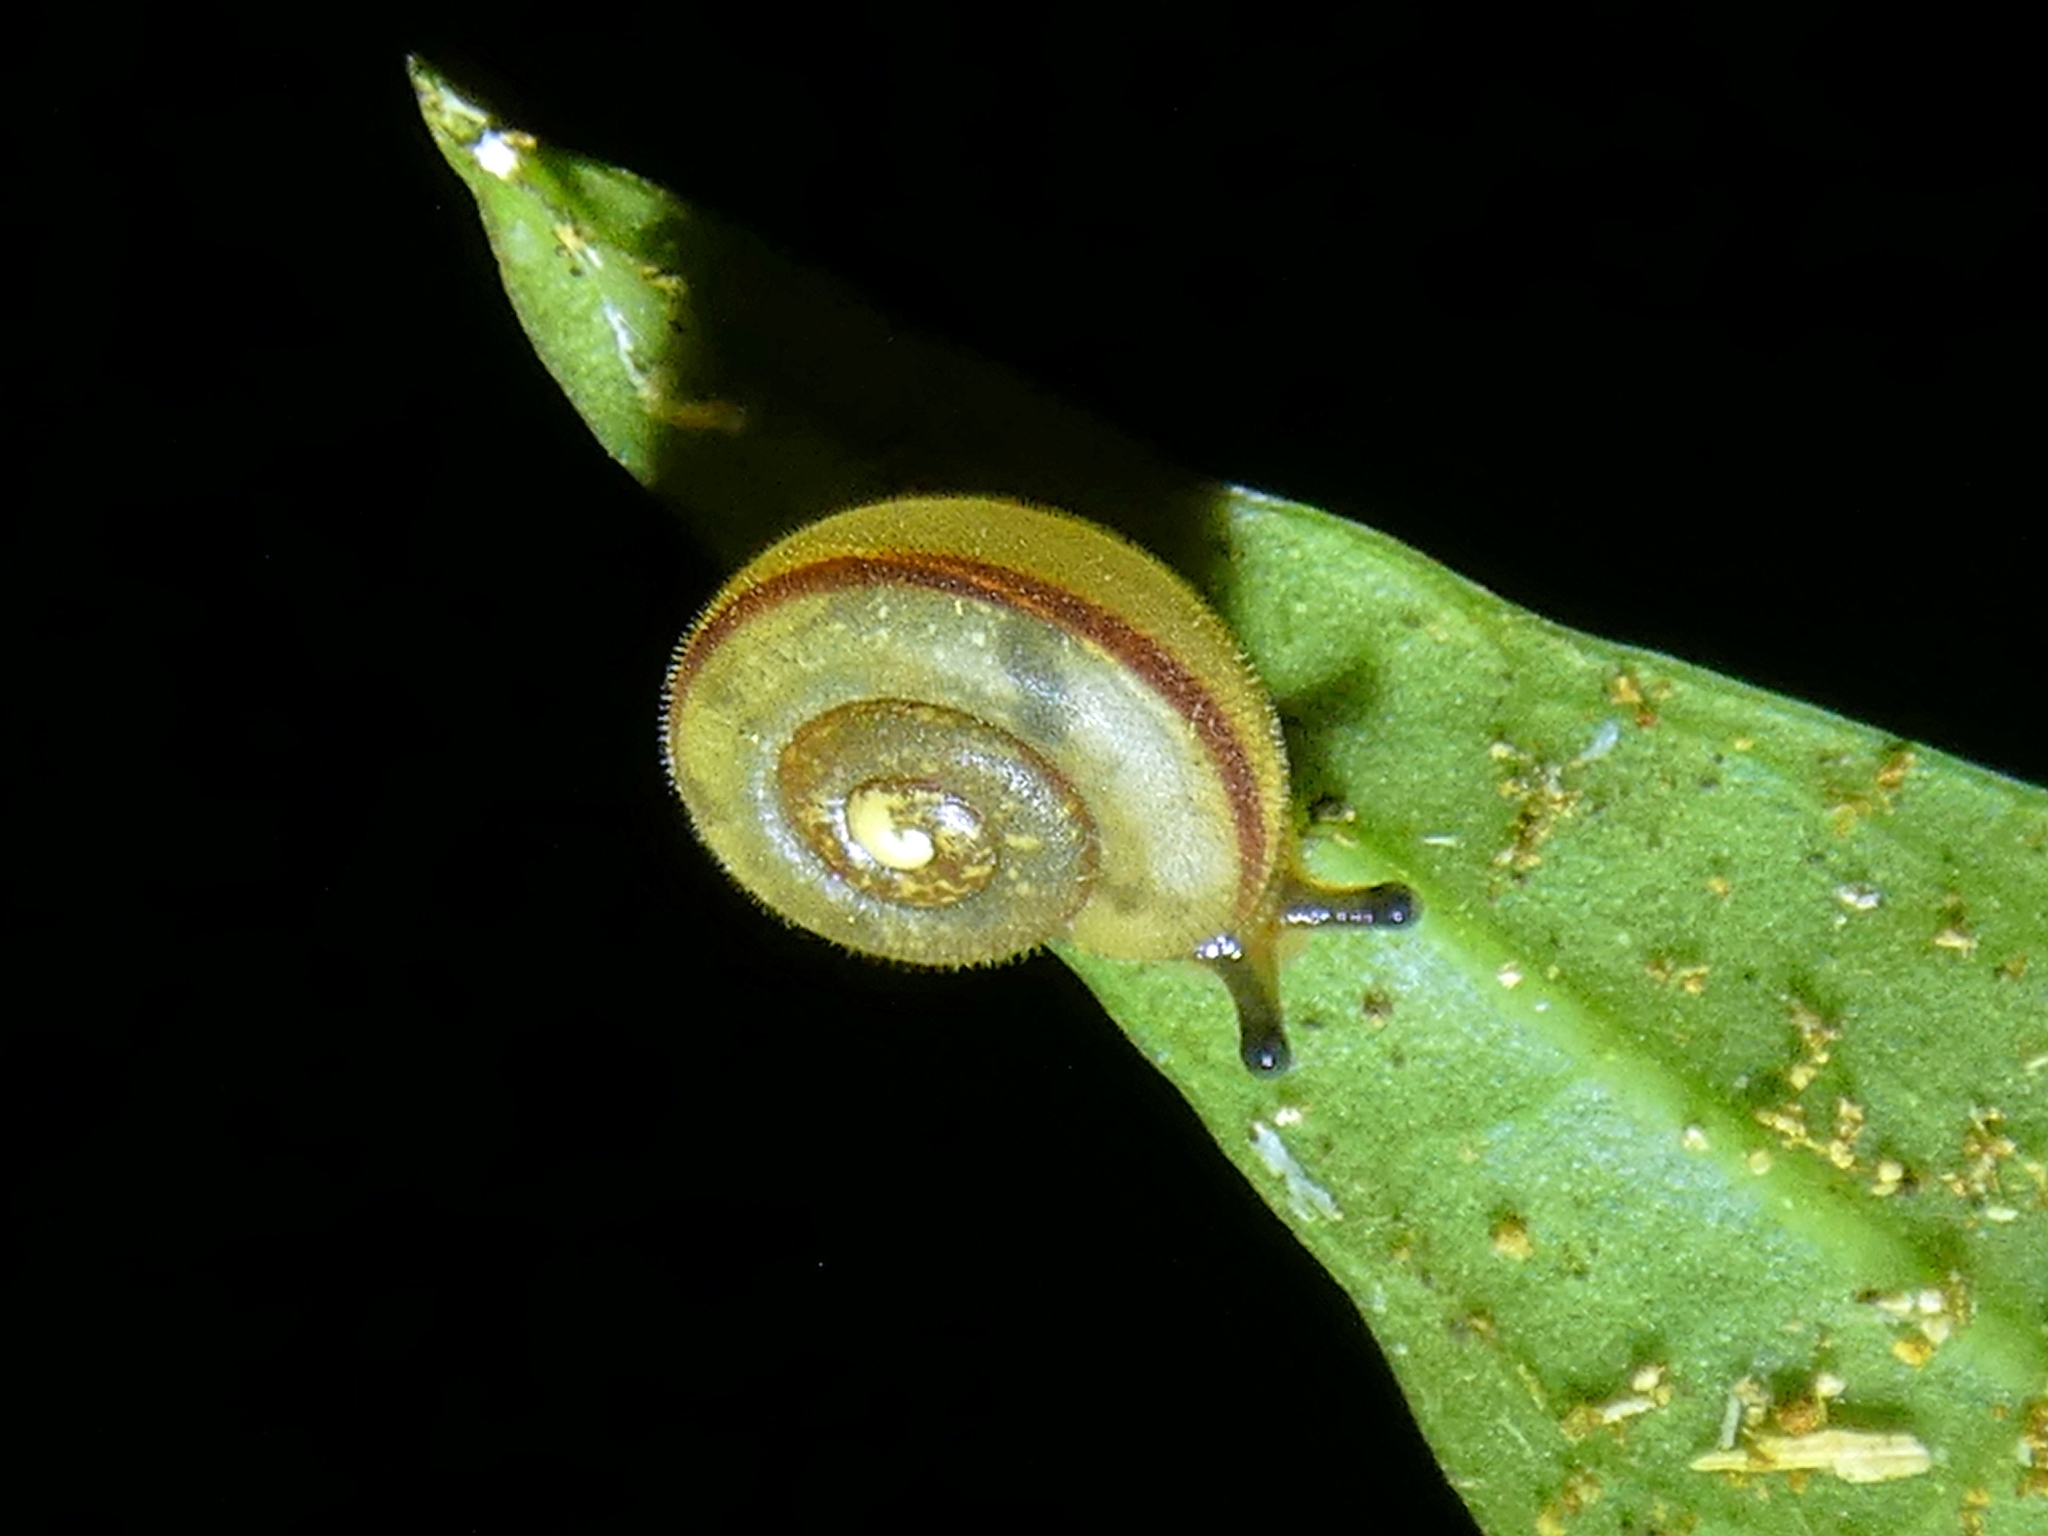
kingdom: Animalia
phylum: Mollusca
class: Gastropoda
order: Stylommatophora
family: Camaenidae
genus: Protolinitis
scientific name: Protolinitis terriirwinae
